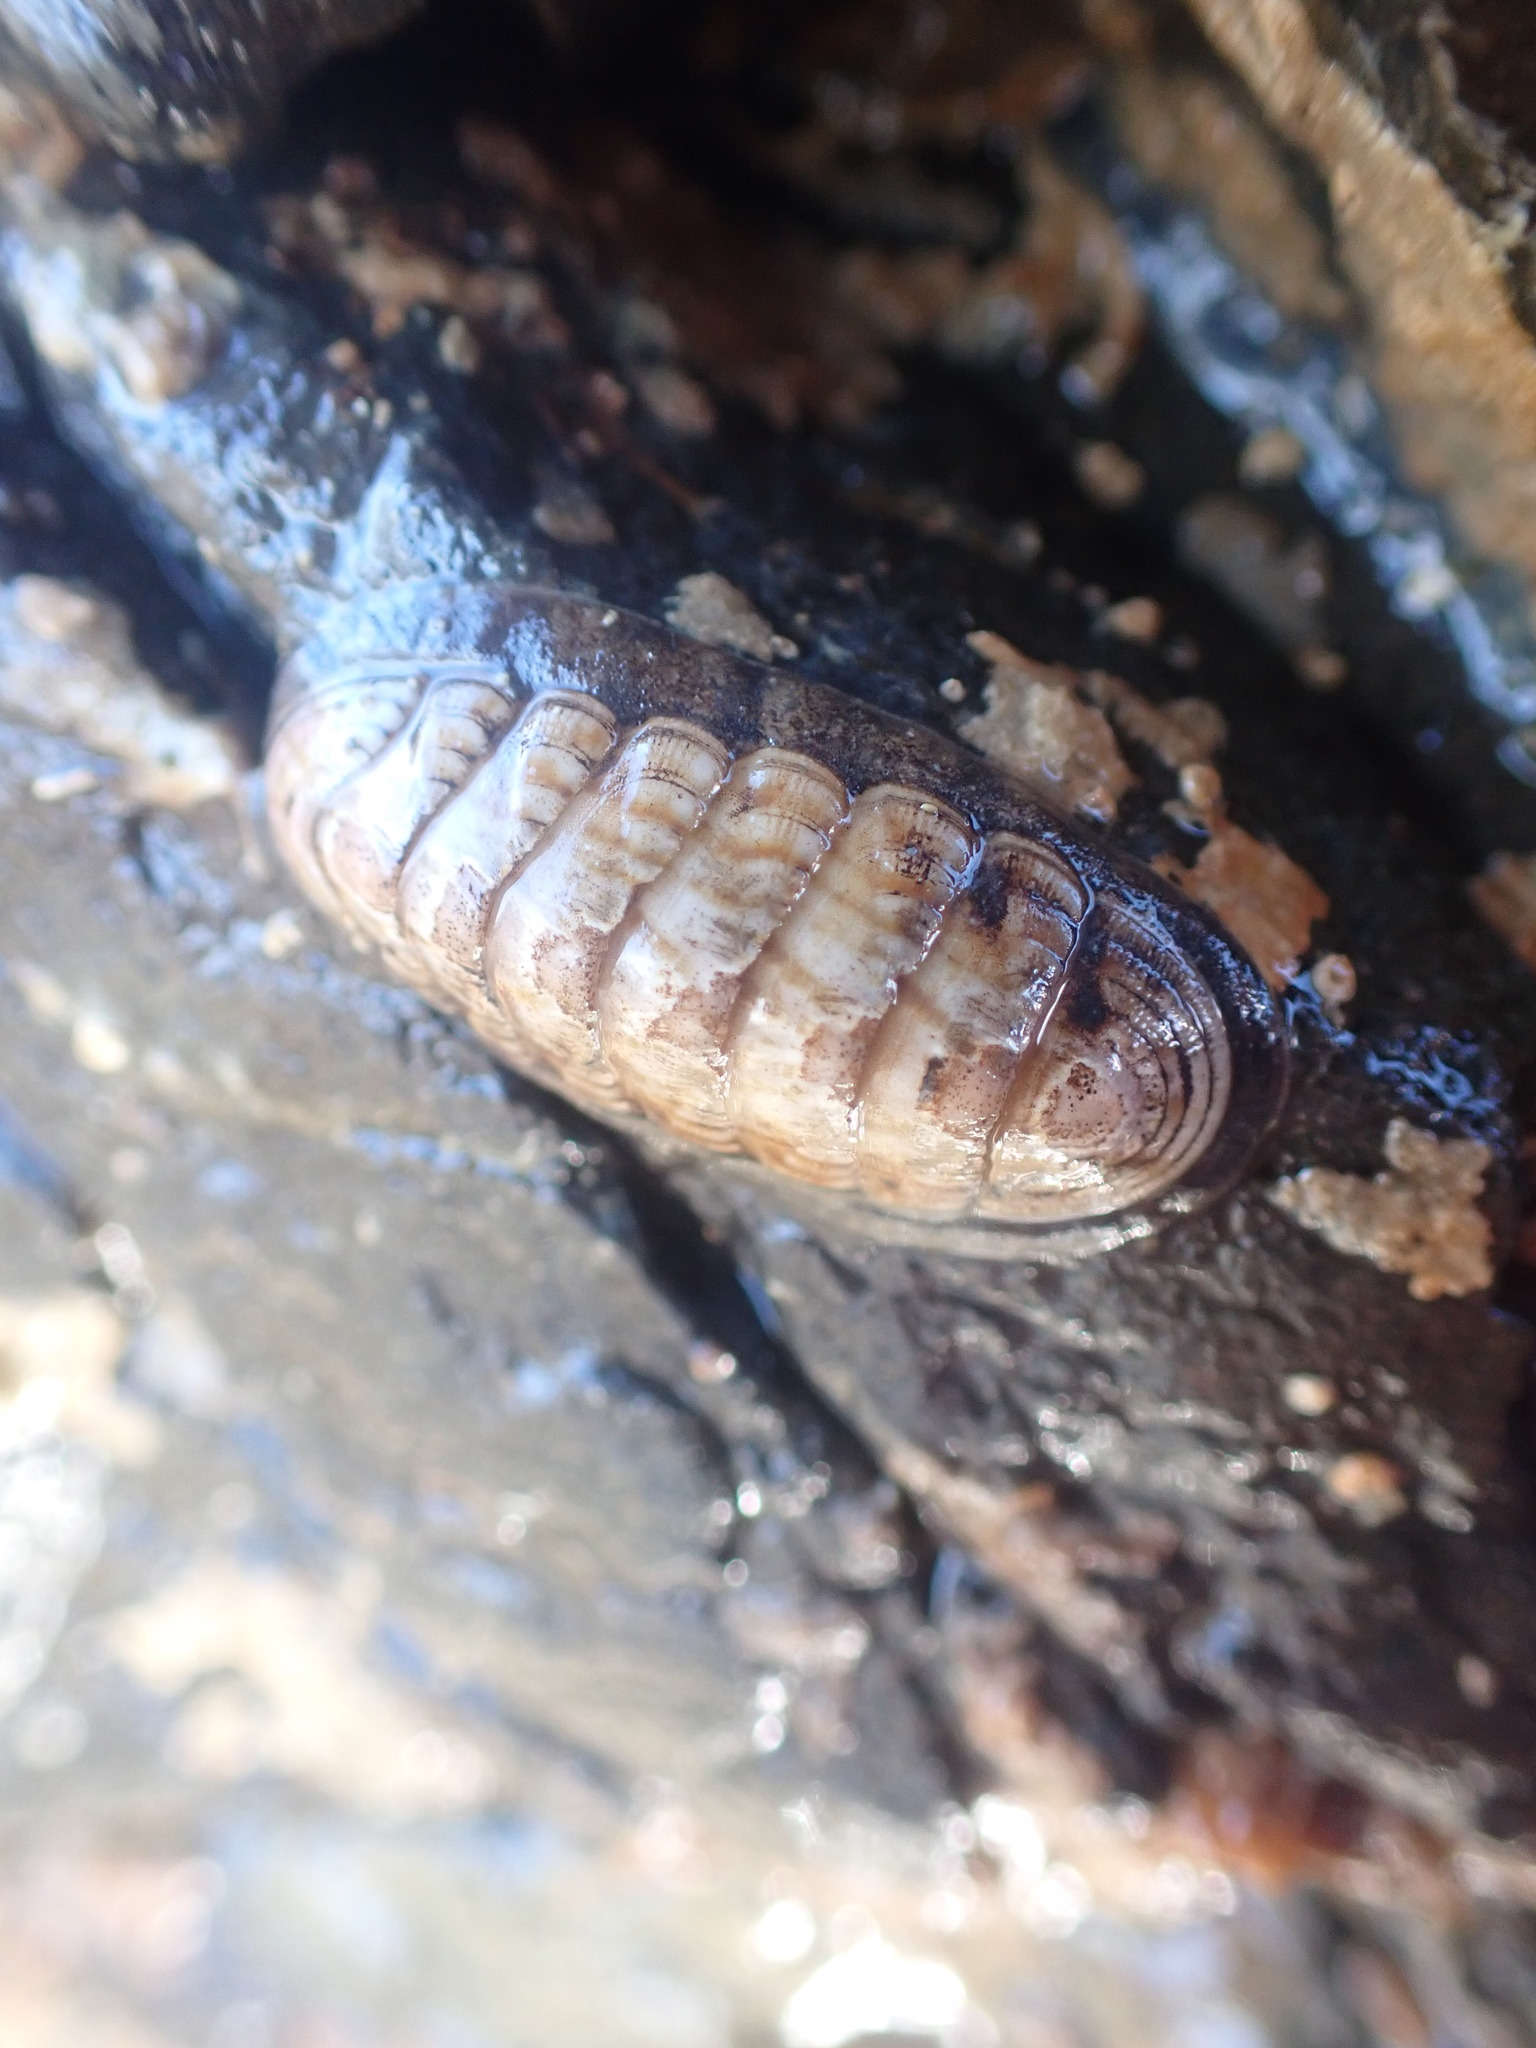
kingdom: Animalia
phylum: Mollusca
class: Polyplacophora
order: Chitonida
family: Ischnochitonidae
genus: Ischnochiton
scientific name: Ischnochiton maorianus
